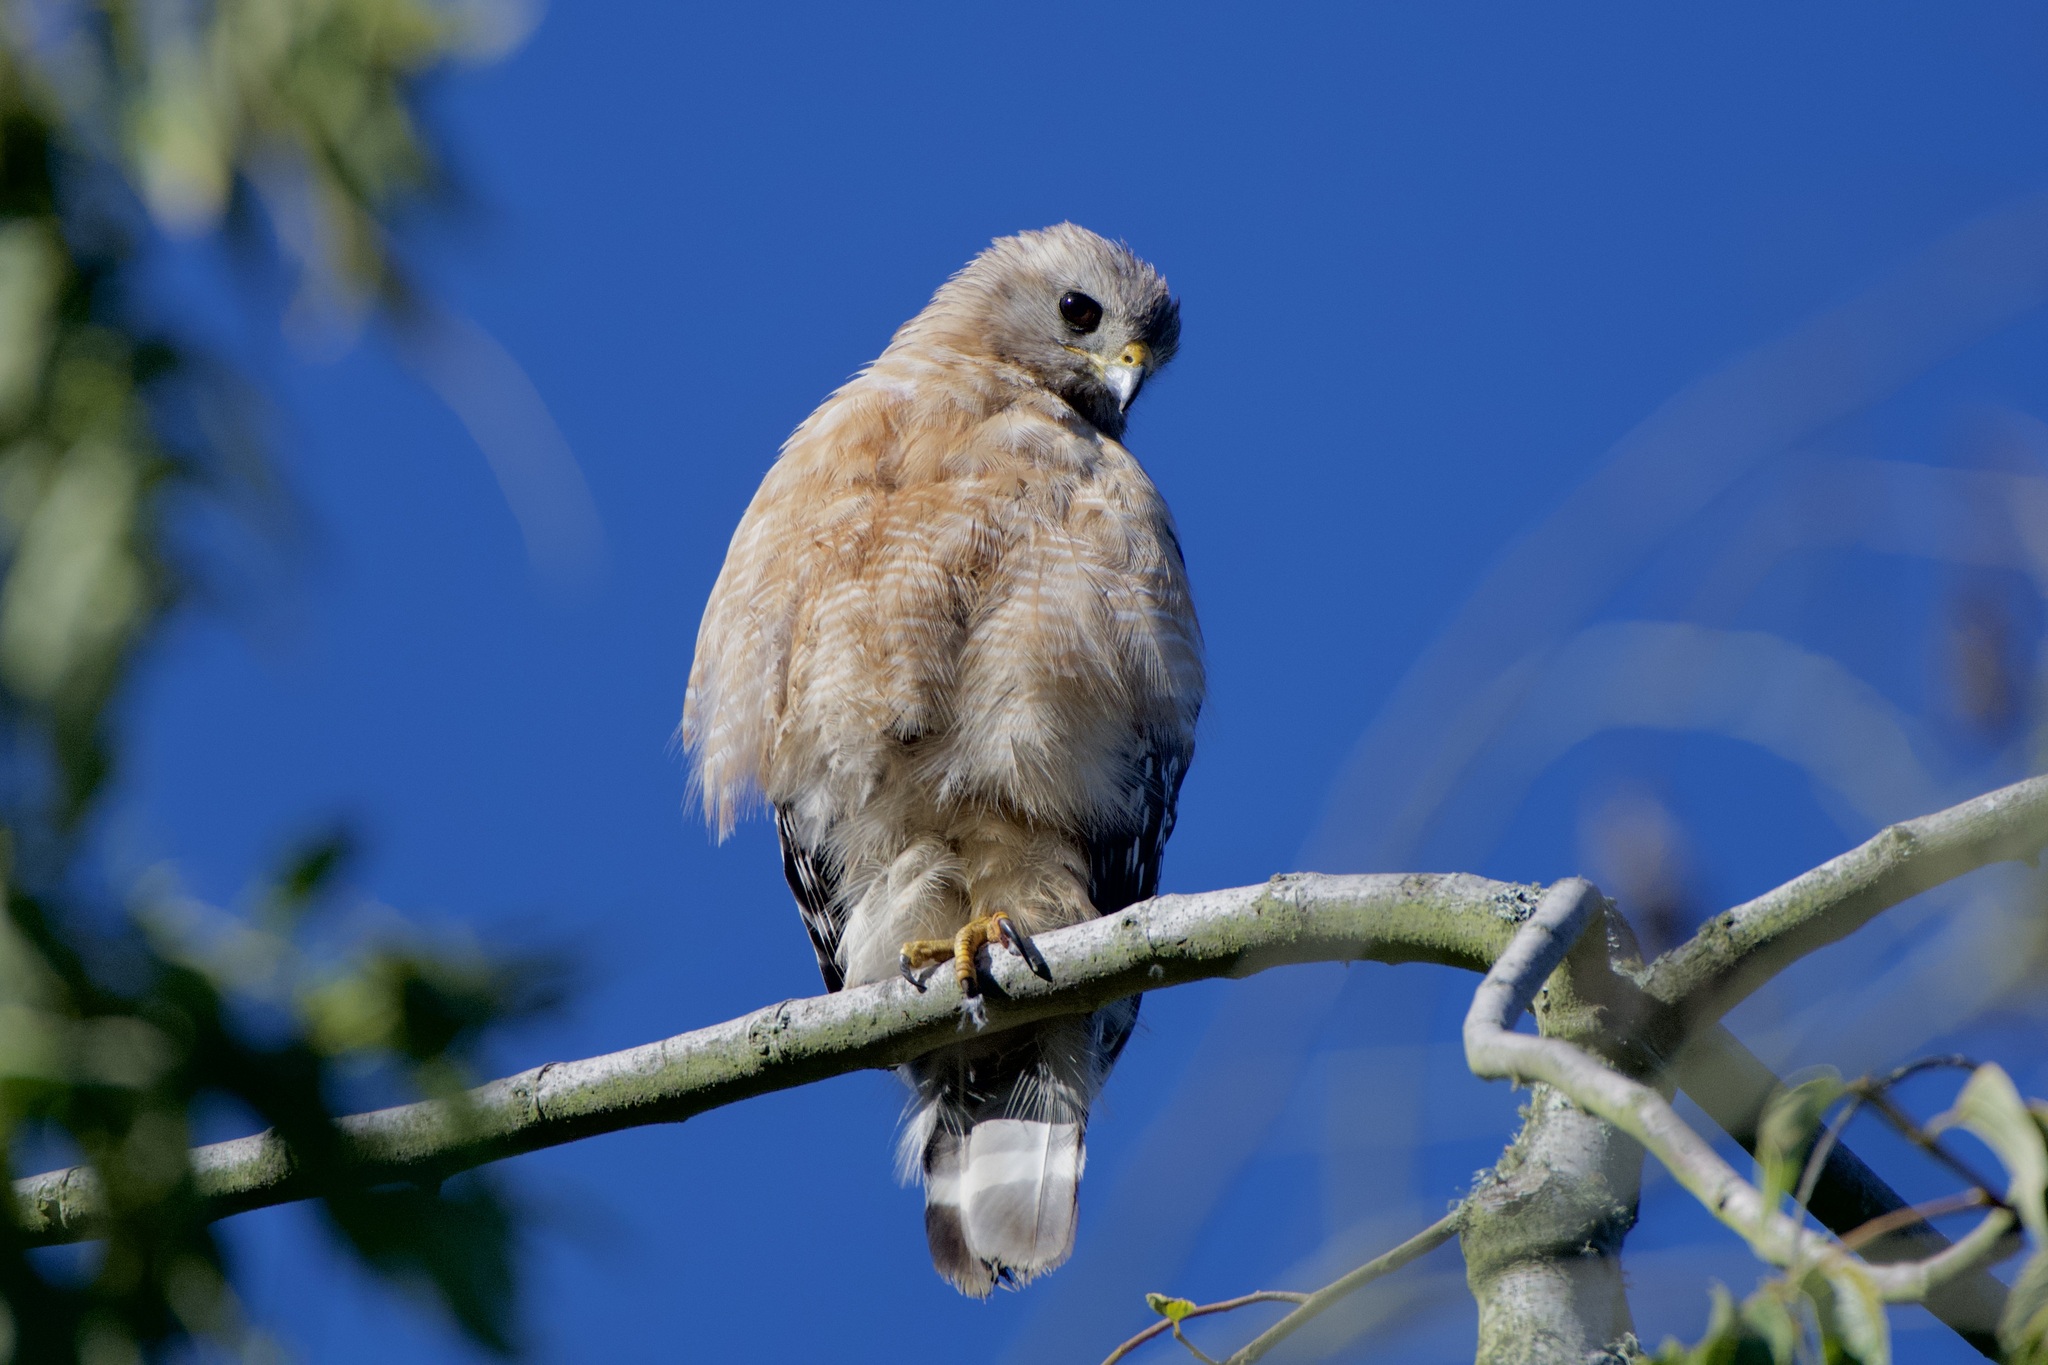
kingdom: Animalia
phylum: Chordata
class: Aves
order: Accipitriformes
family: Accipitridae
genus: Buteo
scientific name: Buteo lineatus
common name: Red-shouldered hawk
